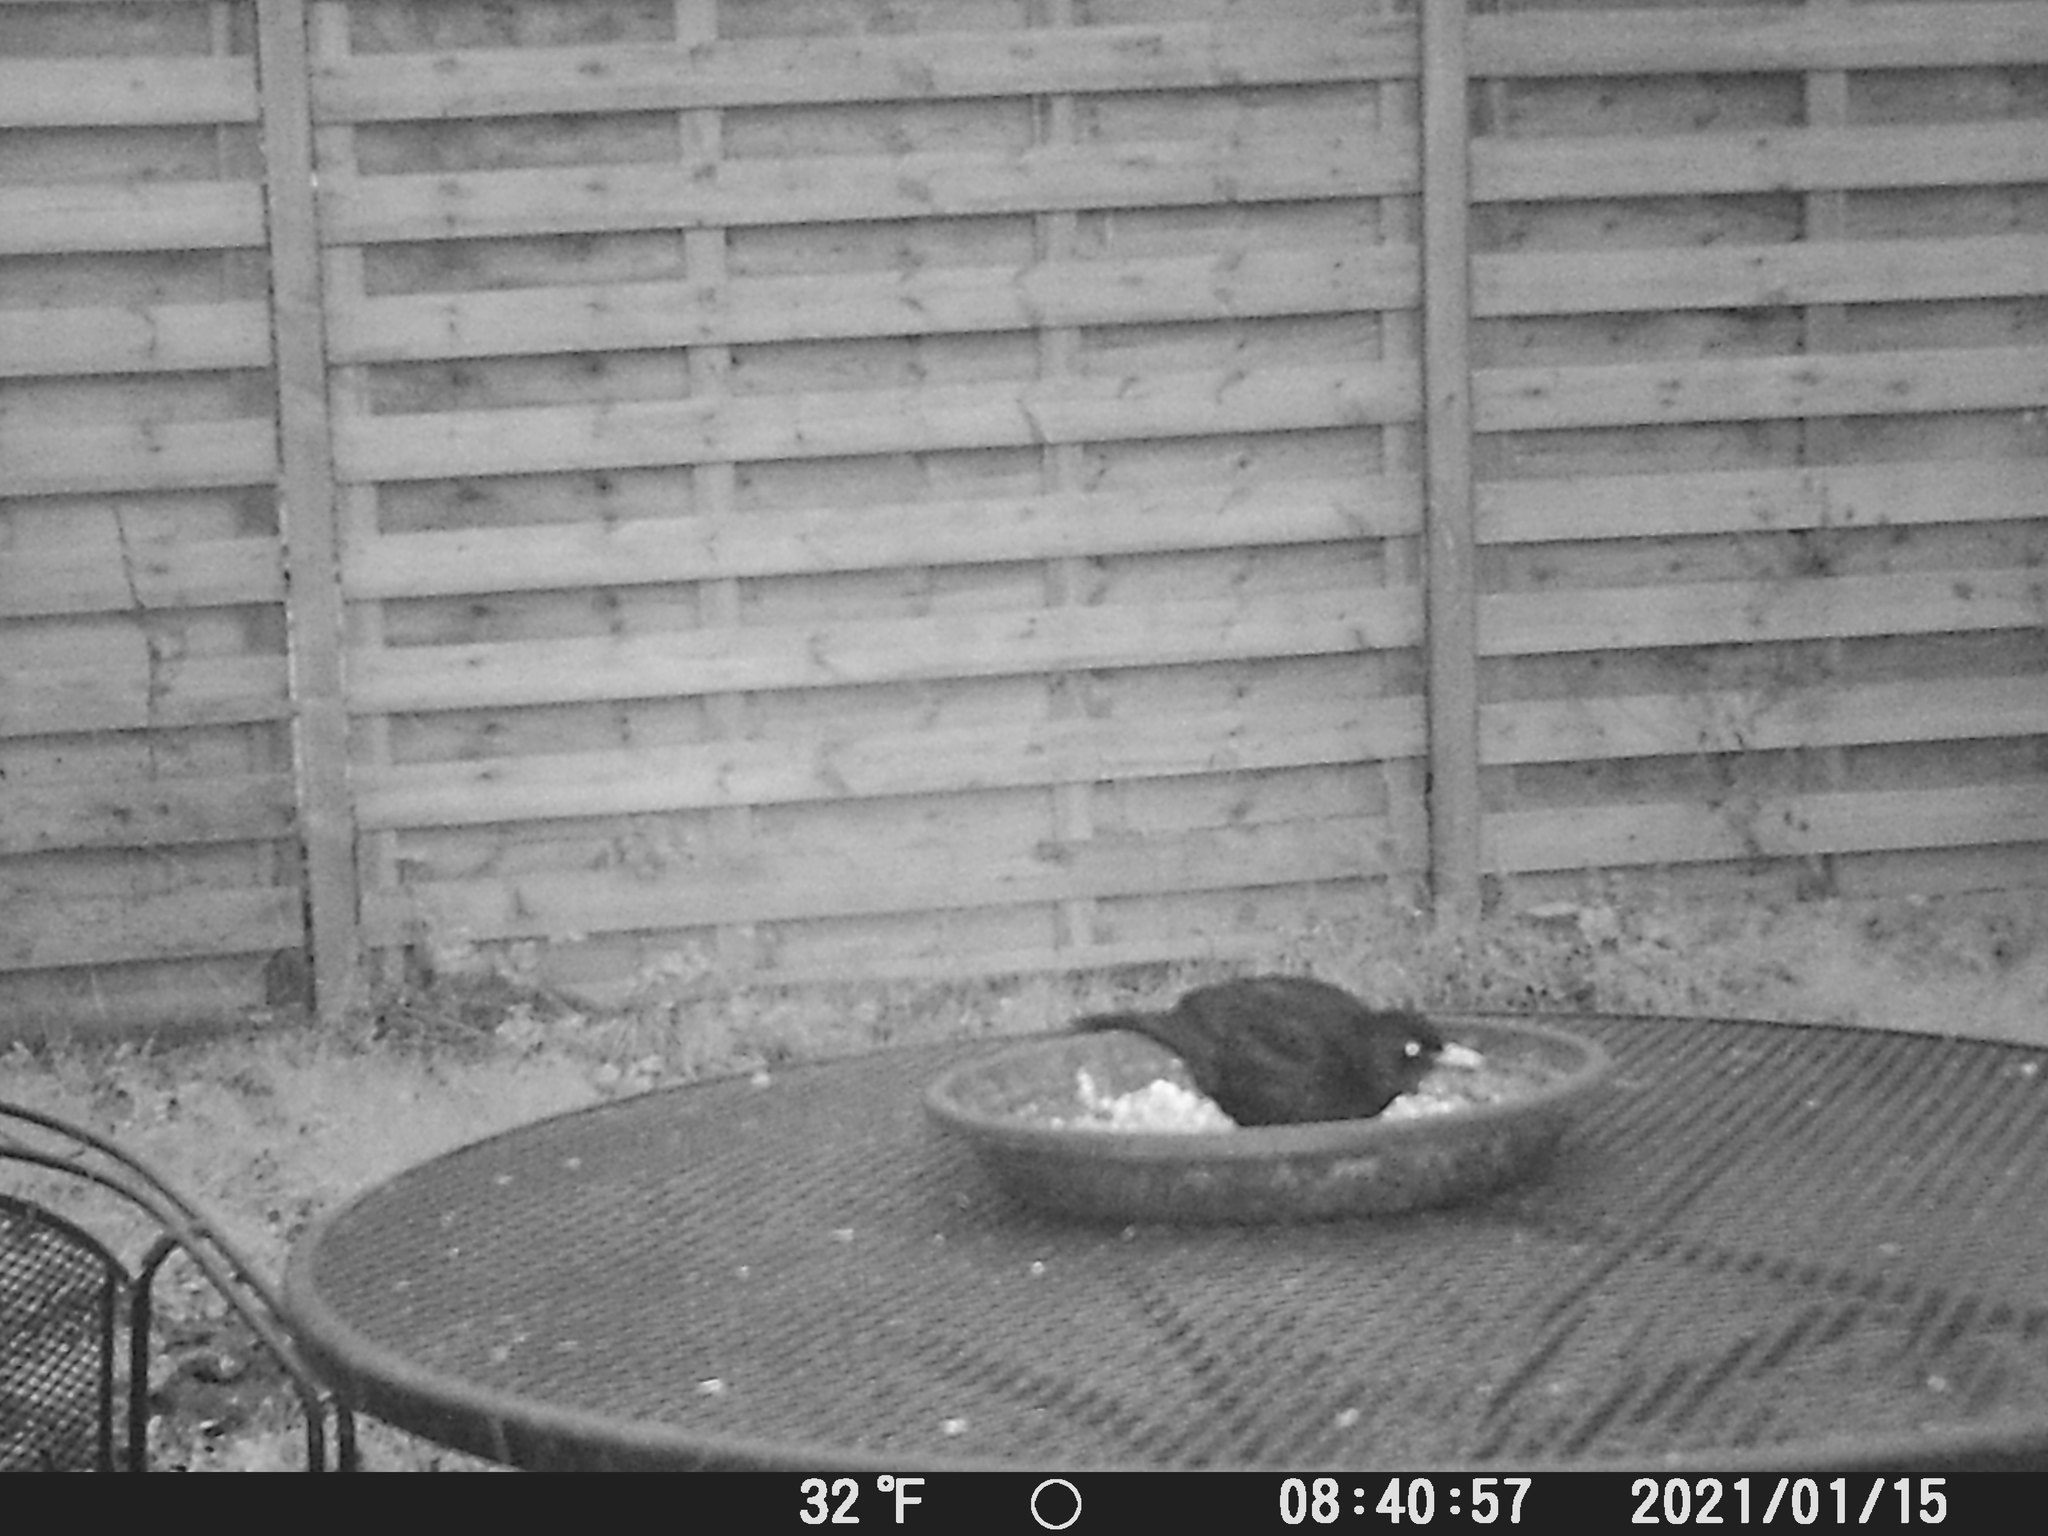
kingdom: Animalia
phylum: Chordata
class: Aves
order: Passeriformes
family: Turdidae
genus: Turdus
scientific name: Turdus merula
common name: Common blackbird
